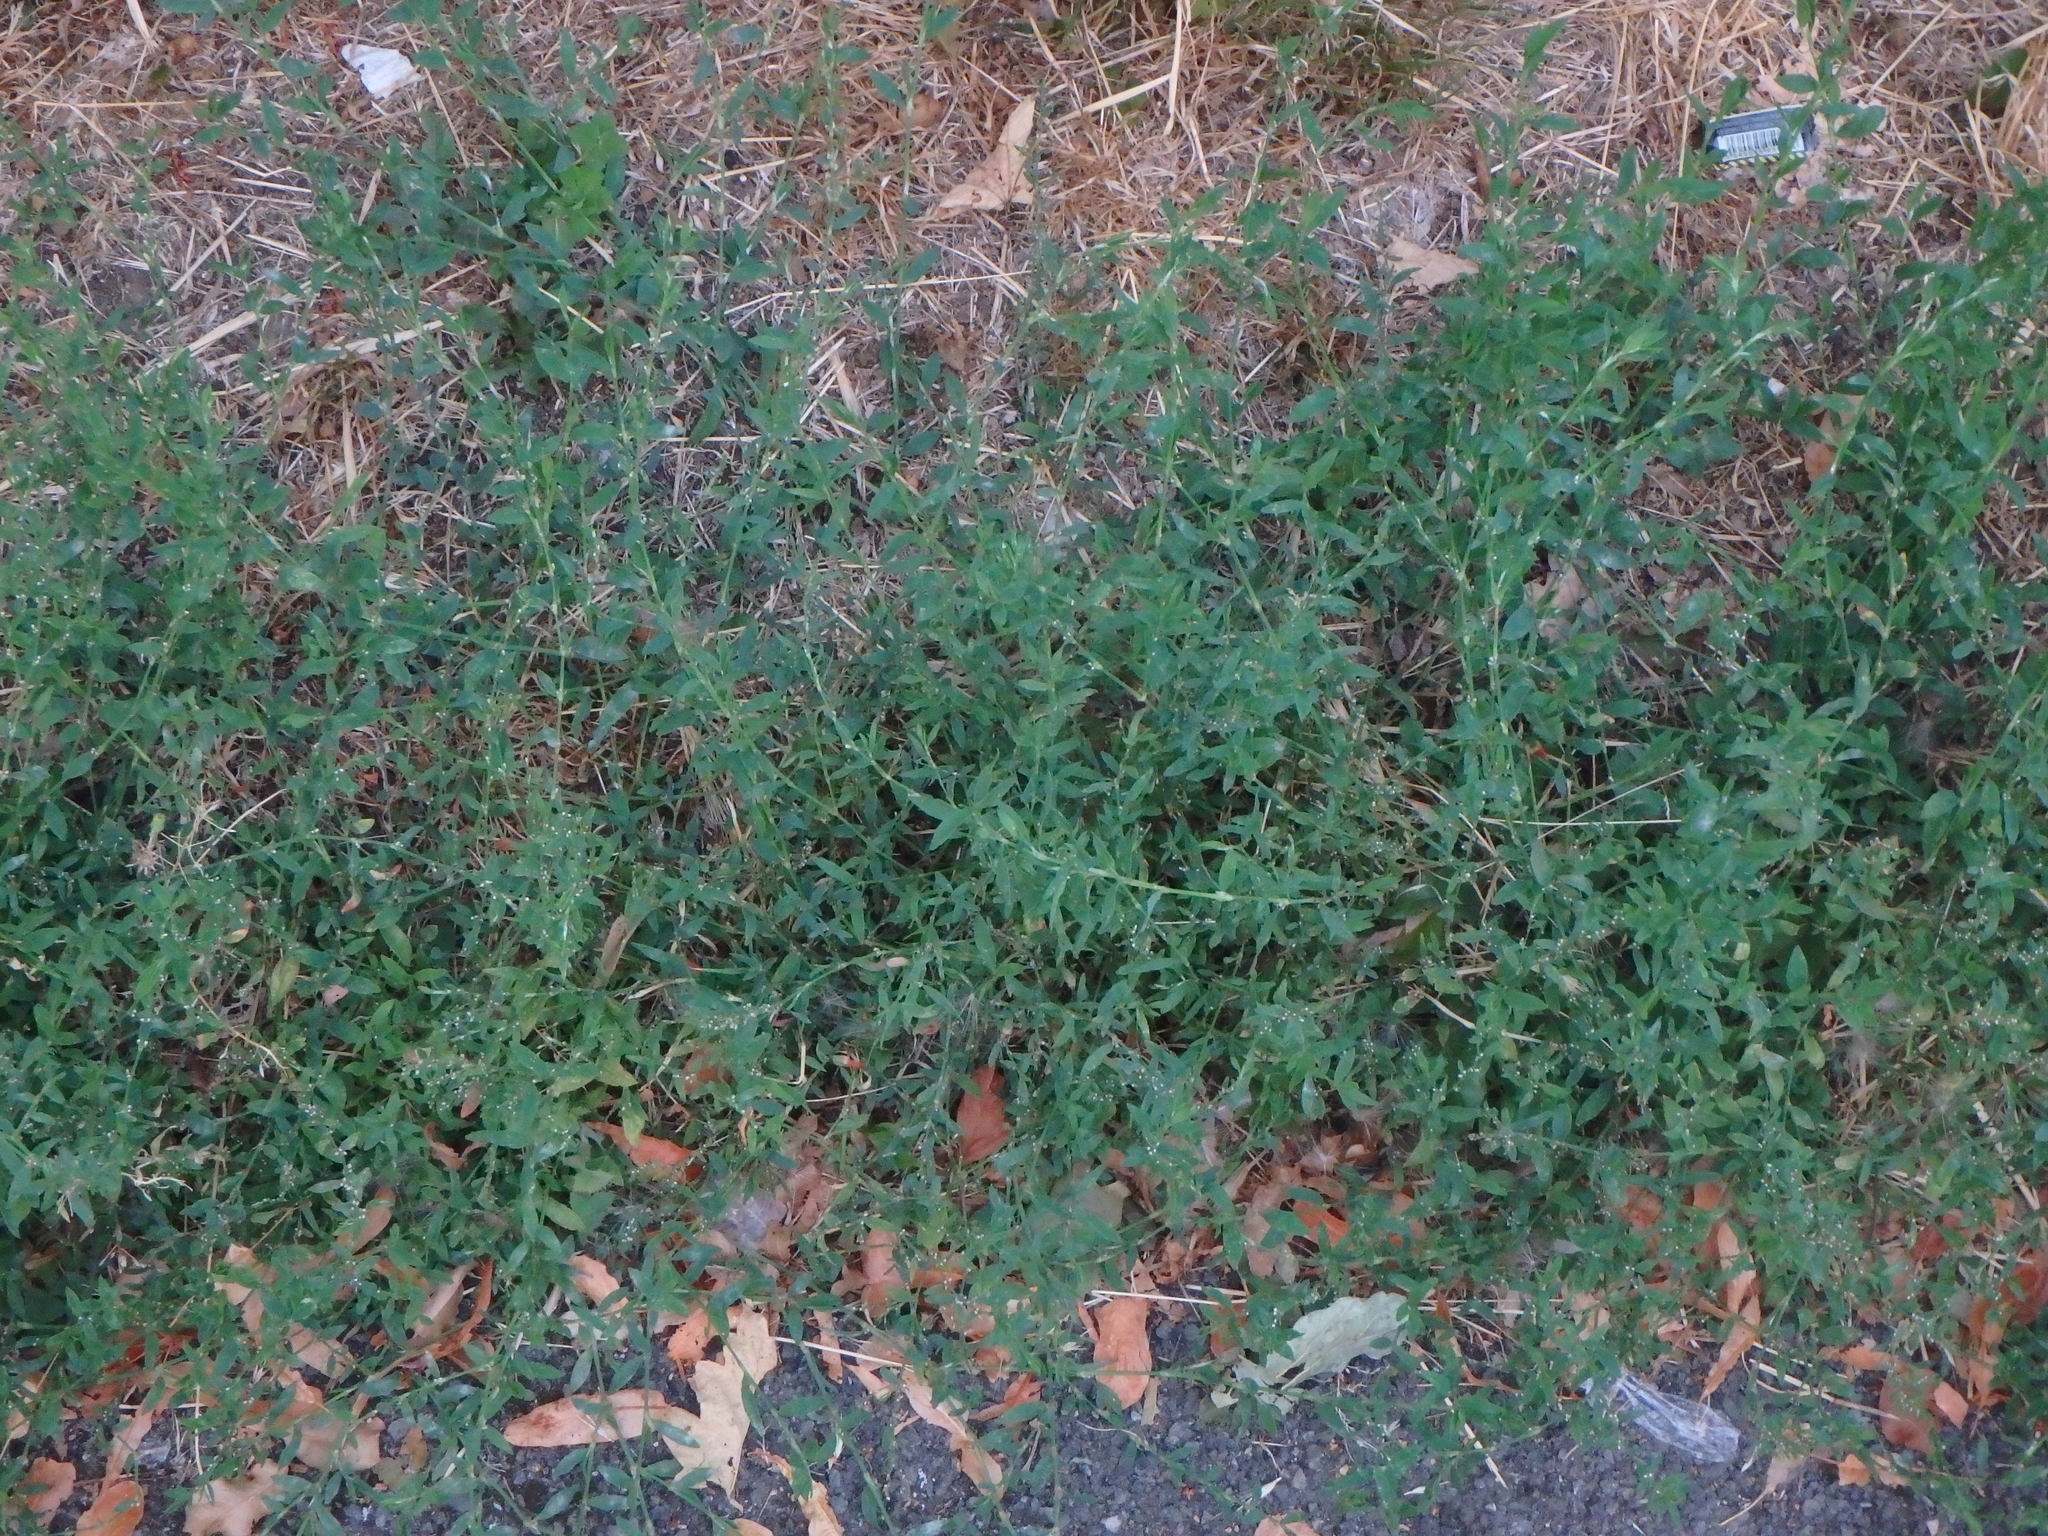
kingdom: Plantae
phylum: Tracheophyta
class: Magnoliopsida
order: Caryophyllales
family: Polygonaceae
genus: Polygonum
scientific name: Polygonum aviculare
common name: Prostrate knotweed
